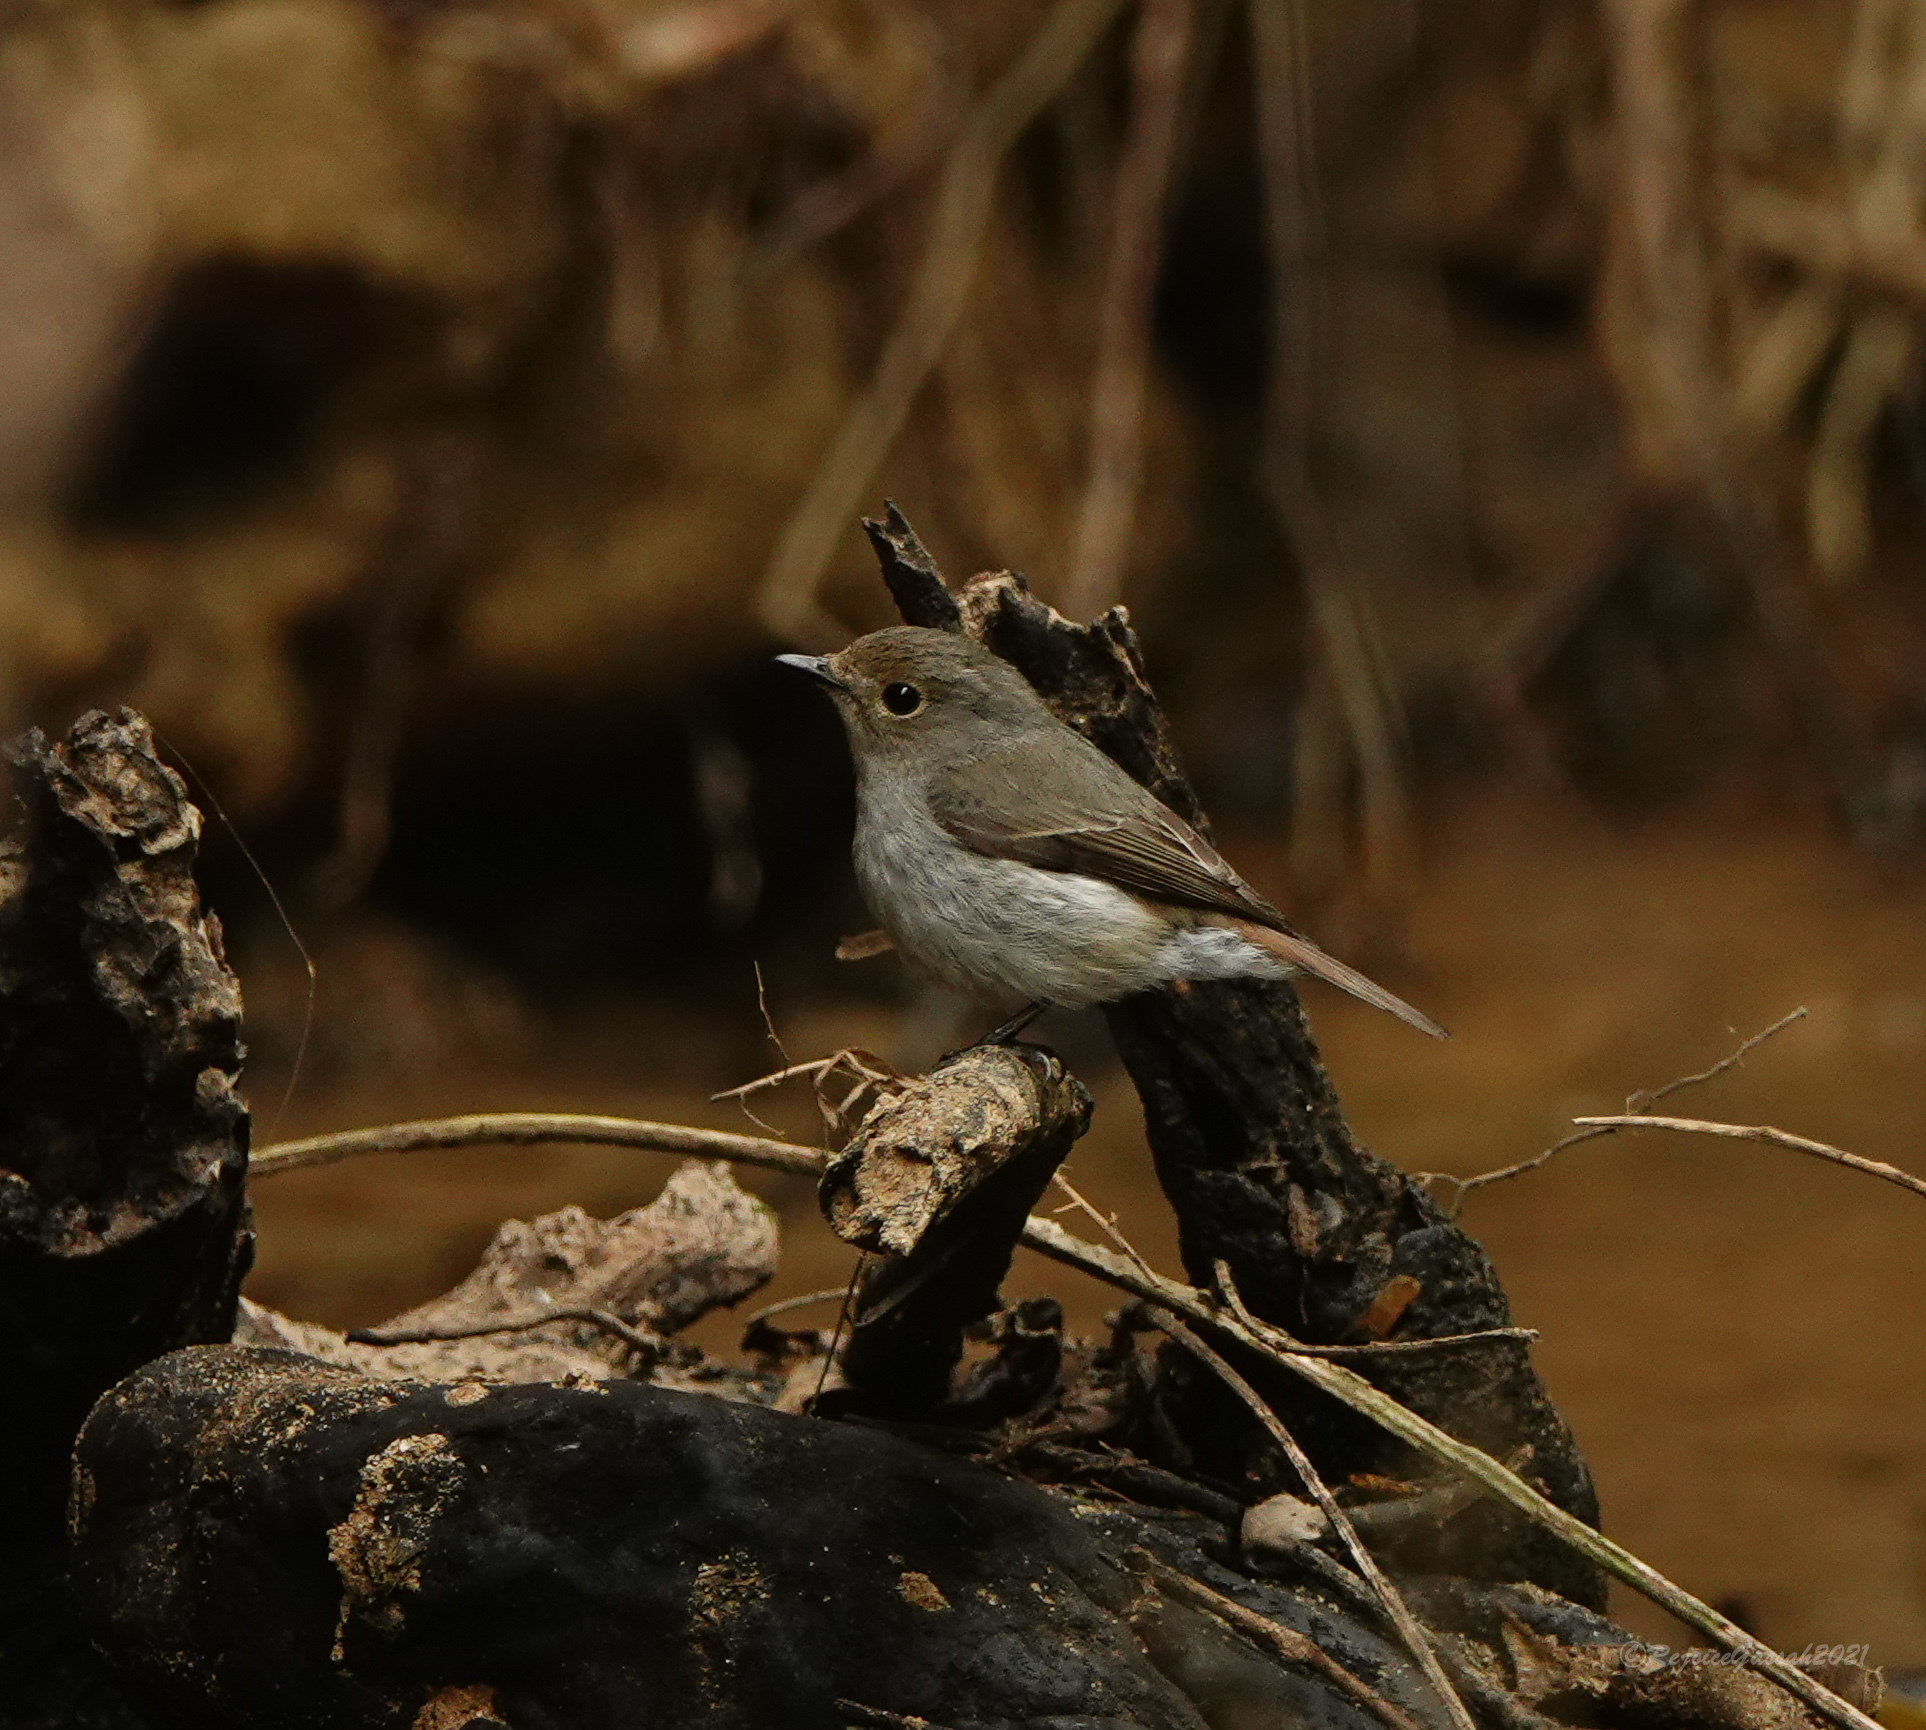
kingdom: Animalia
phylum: Chordata
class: Aves
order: Passeriformes
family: Muscicapidae
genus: Ficedula
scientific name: Ficedula westermanni
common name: Little pied flycatcher
